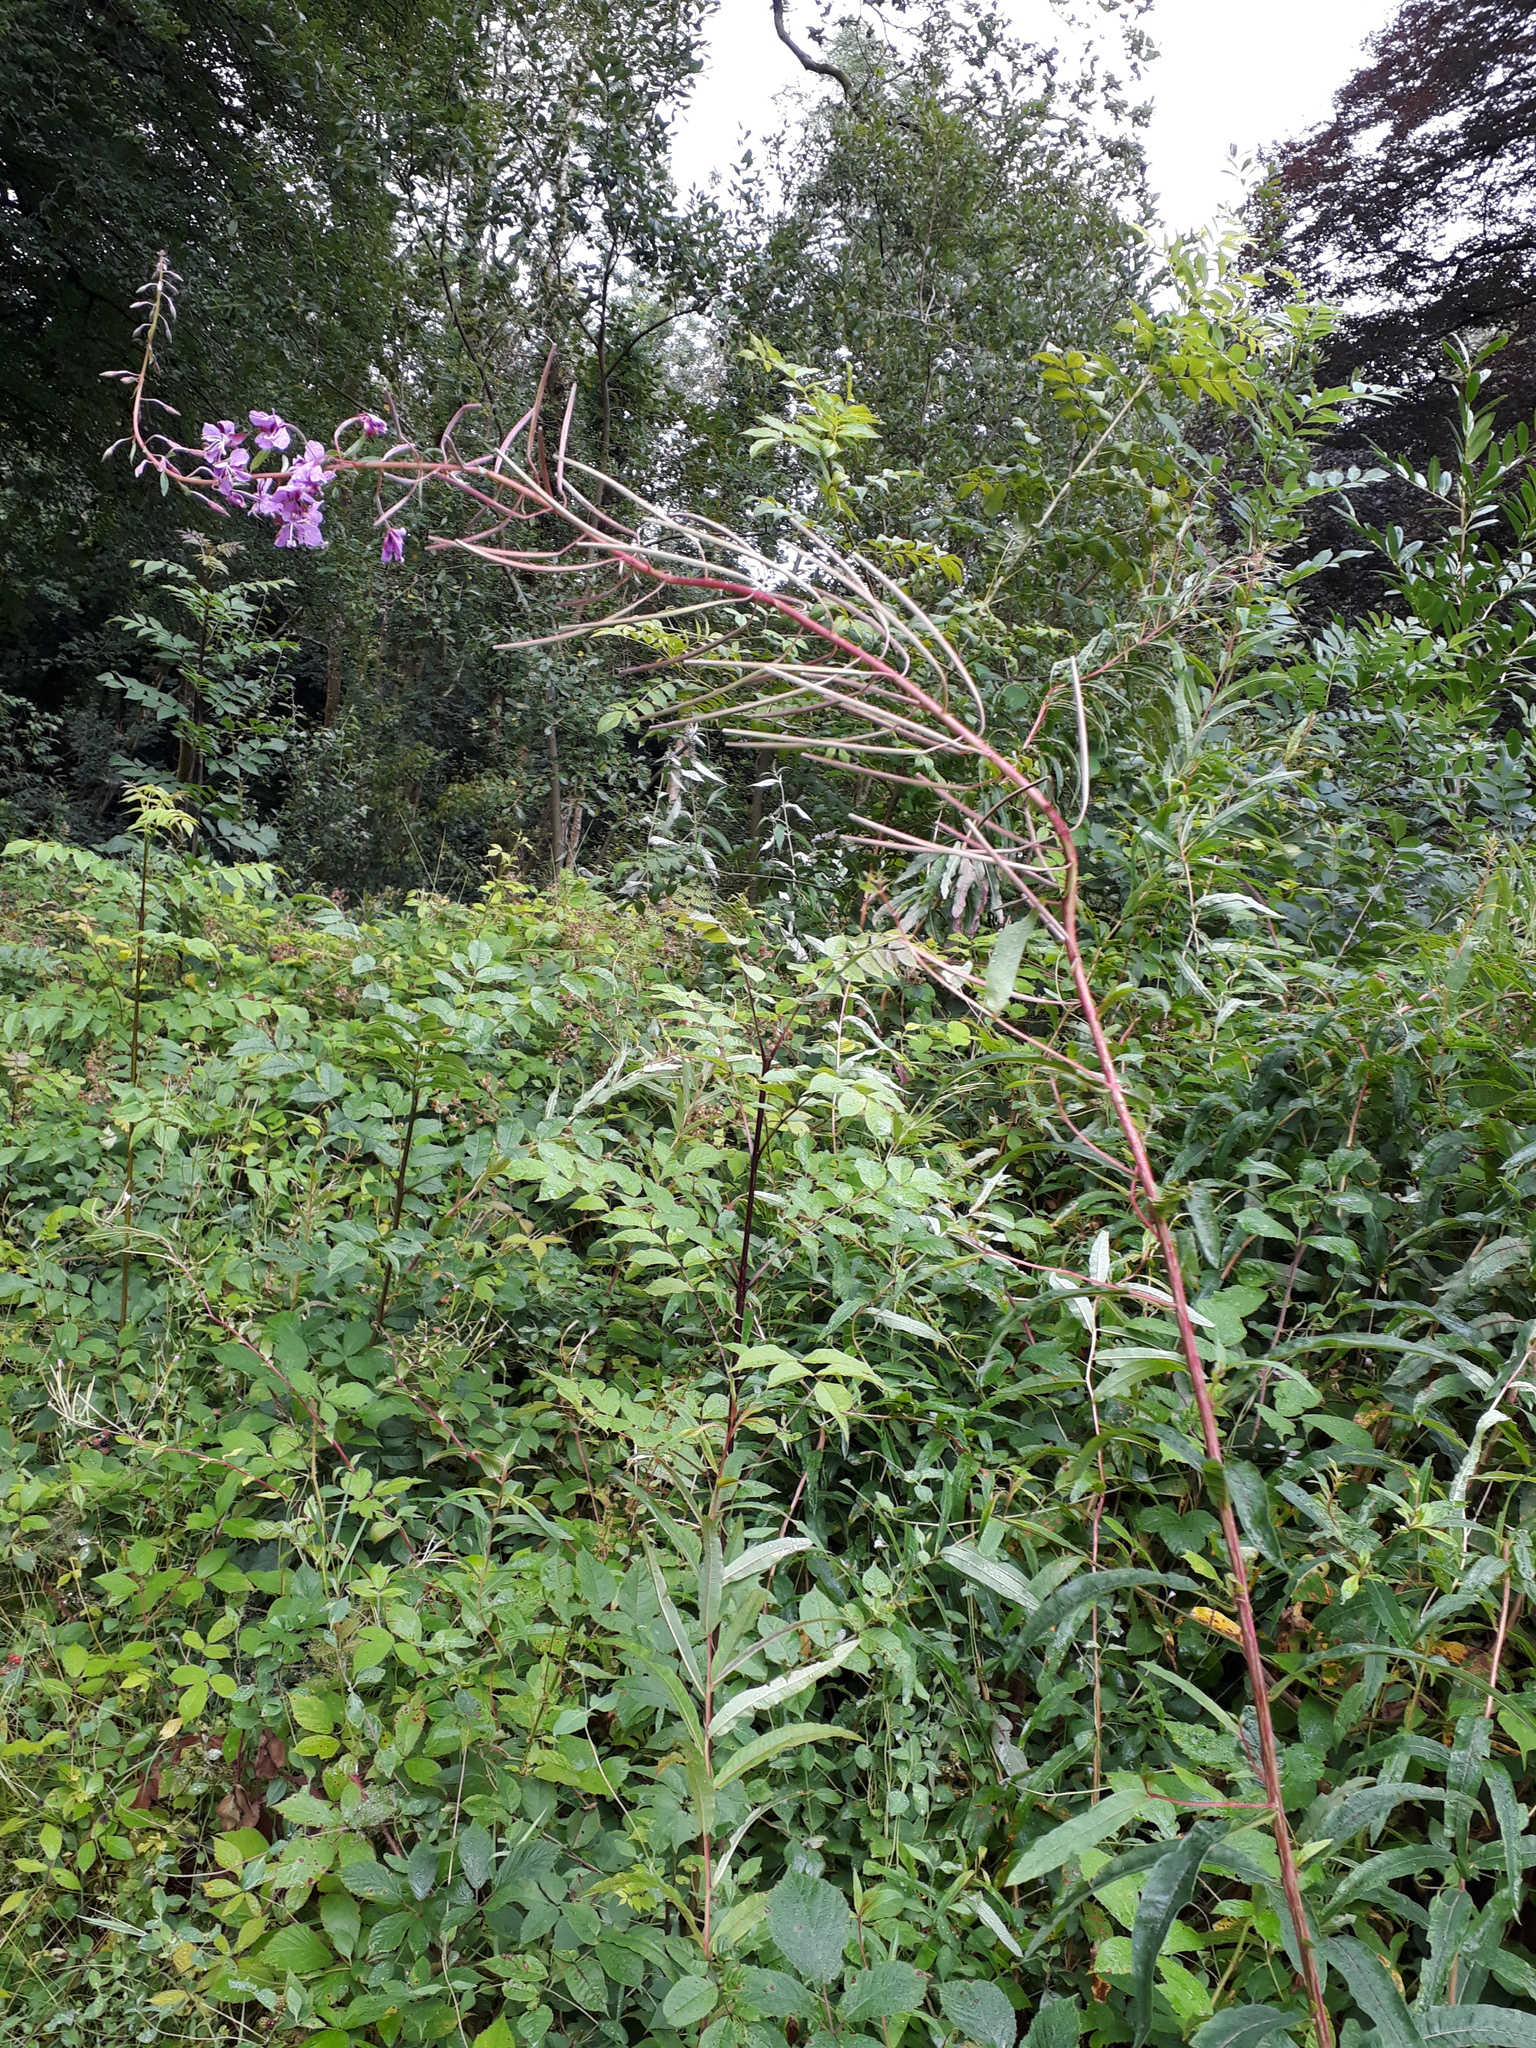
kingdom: Plantae
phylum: Tracheophyta
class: Magnoliopsida
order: Myrtales
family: Onagraceae
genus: Chamaenerion
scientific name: Chamaenerion angustifolium
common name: Fireweed
